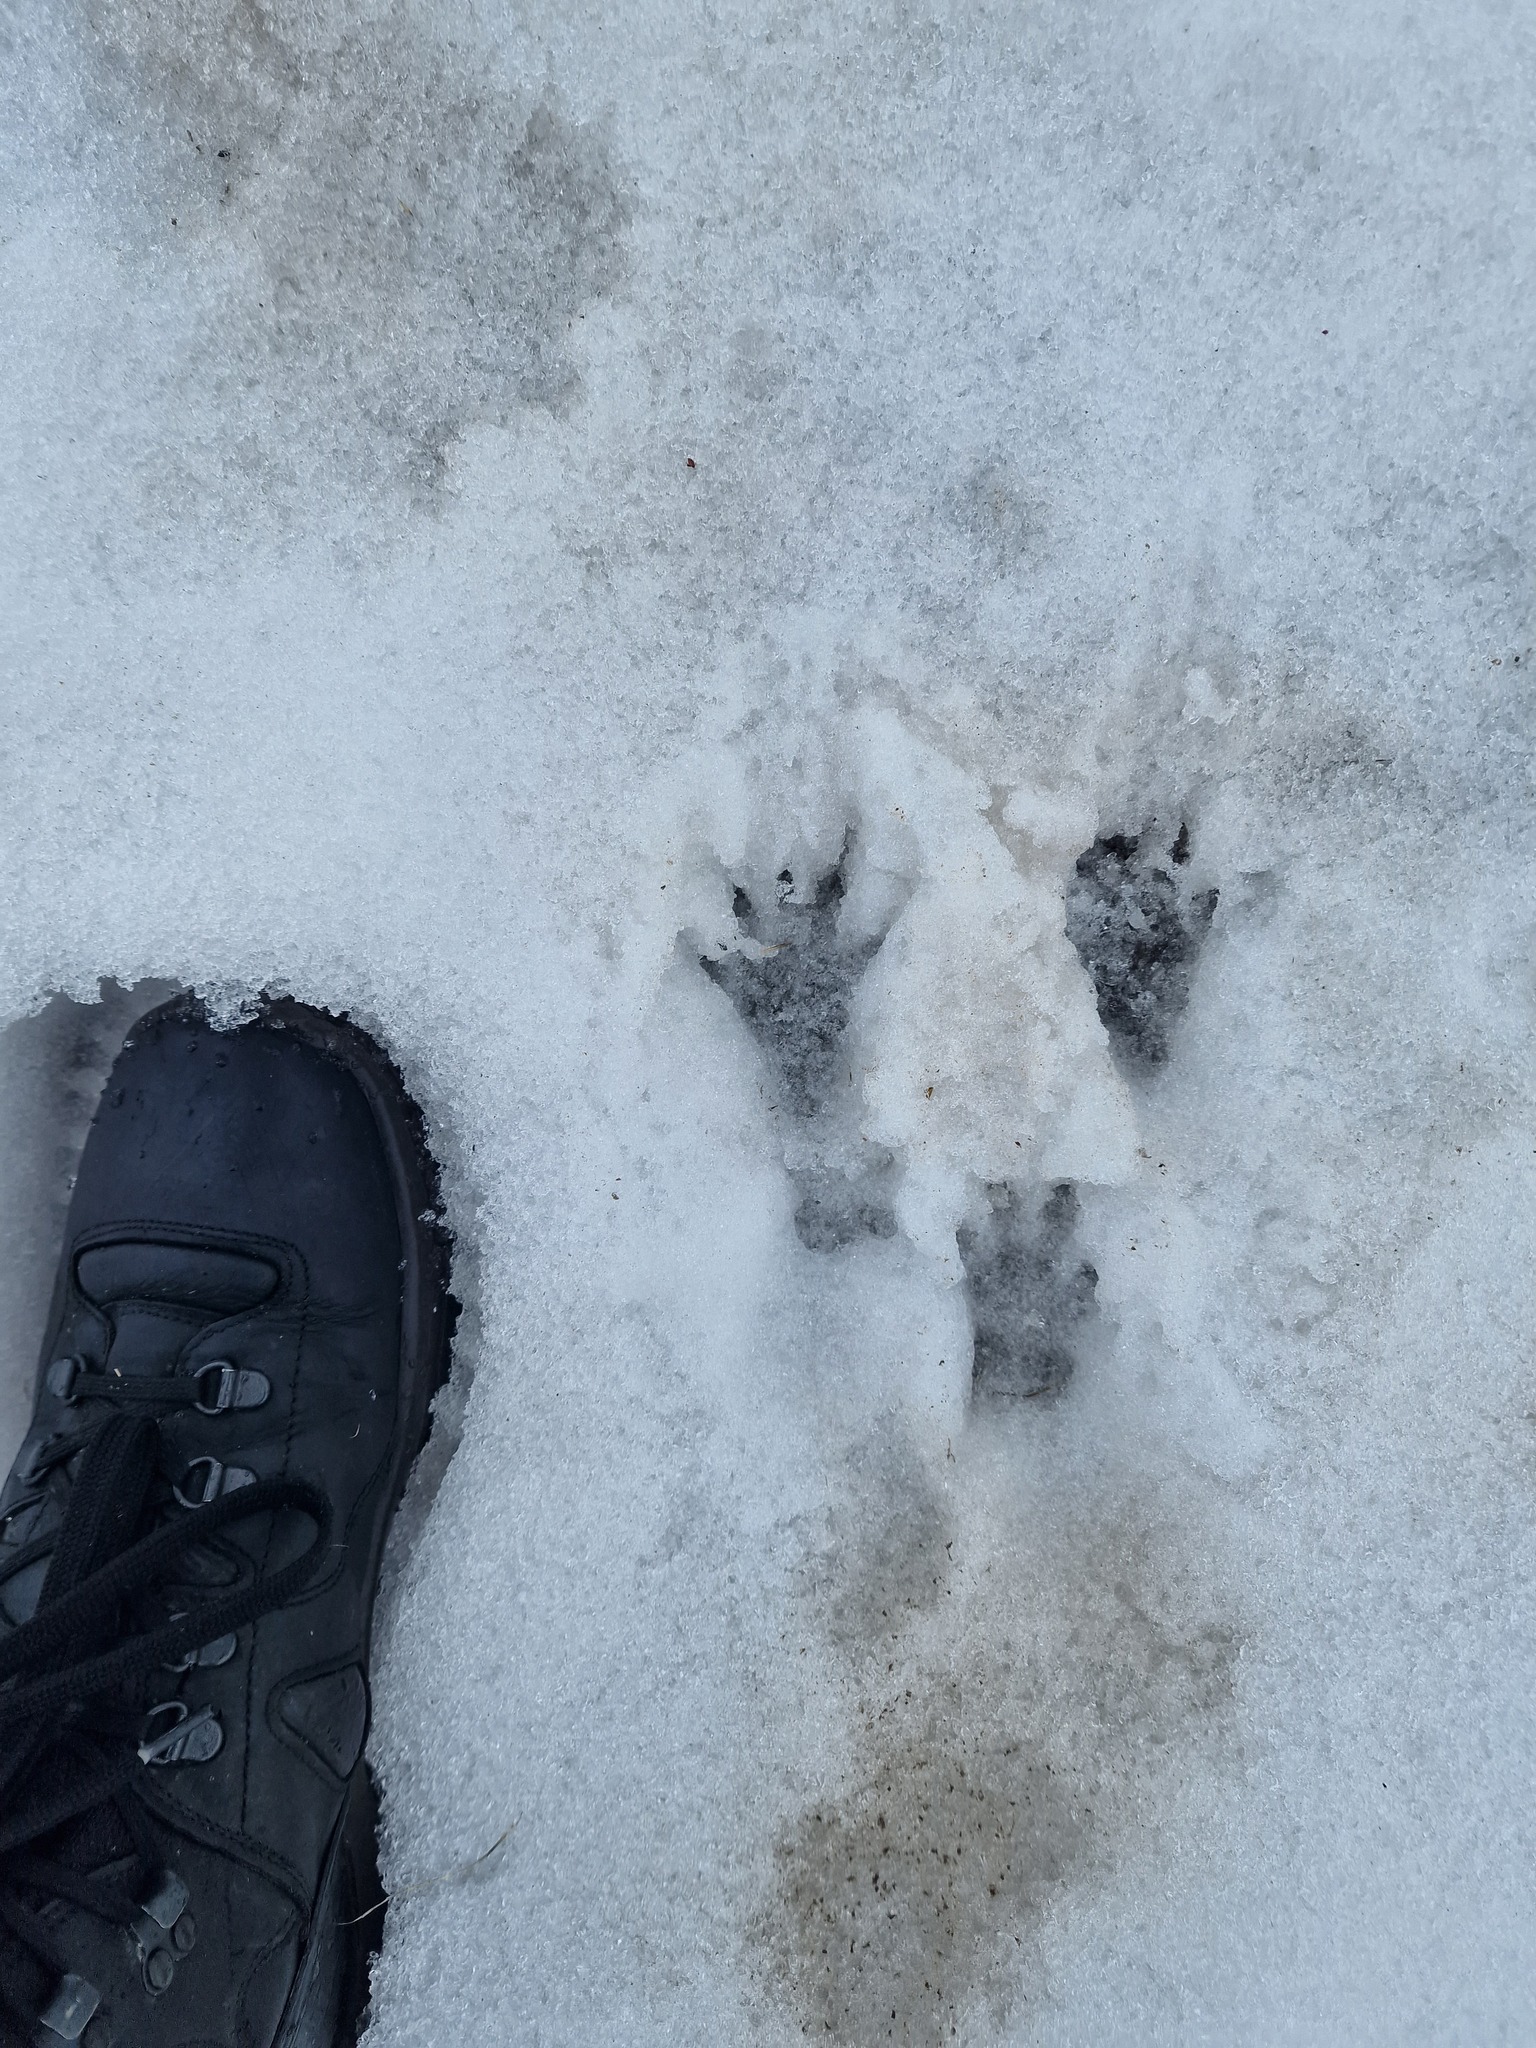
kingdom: Animalia
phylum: Chordata
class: Mammalia
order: Rodentia
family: Sciuridae
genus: Marmota
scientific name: Marmota marmota
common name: Alpine marmot
